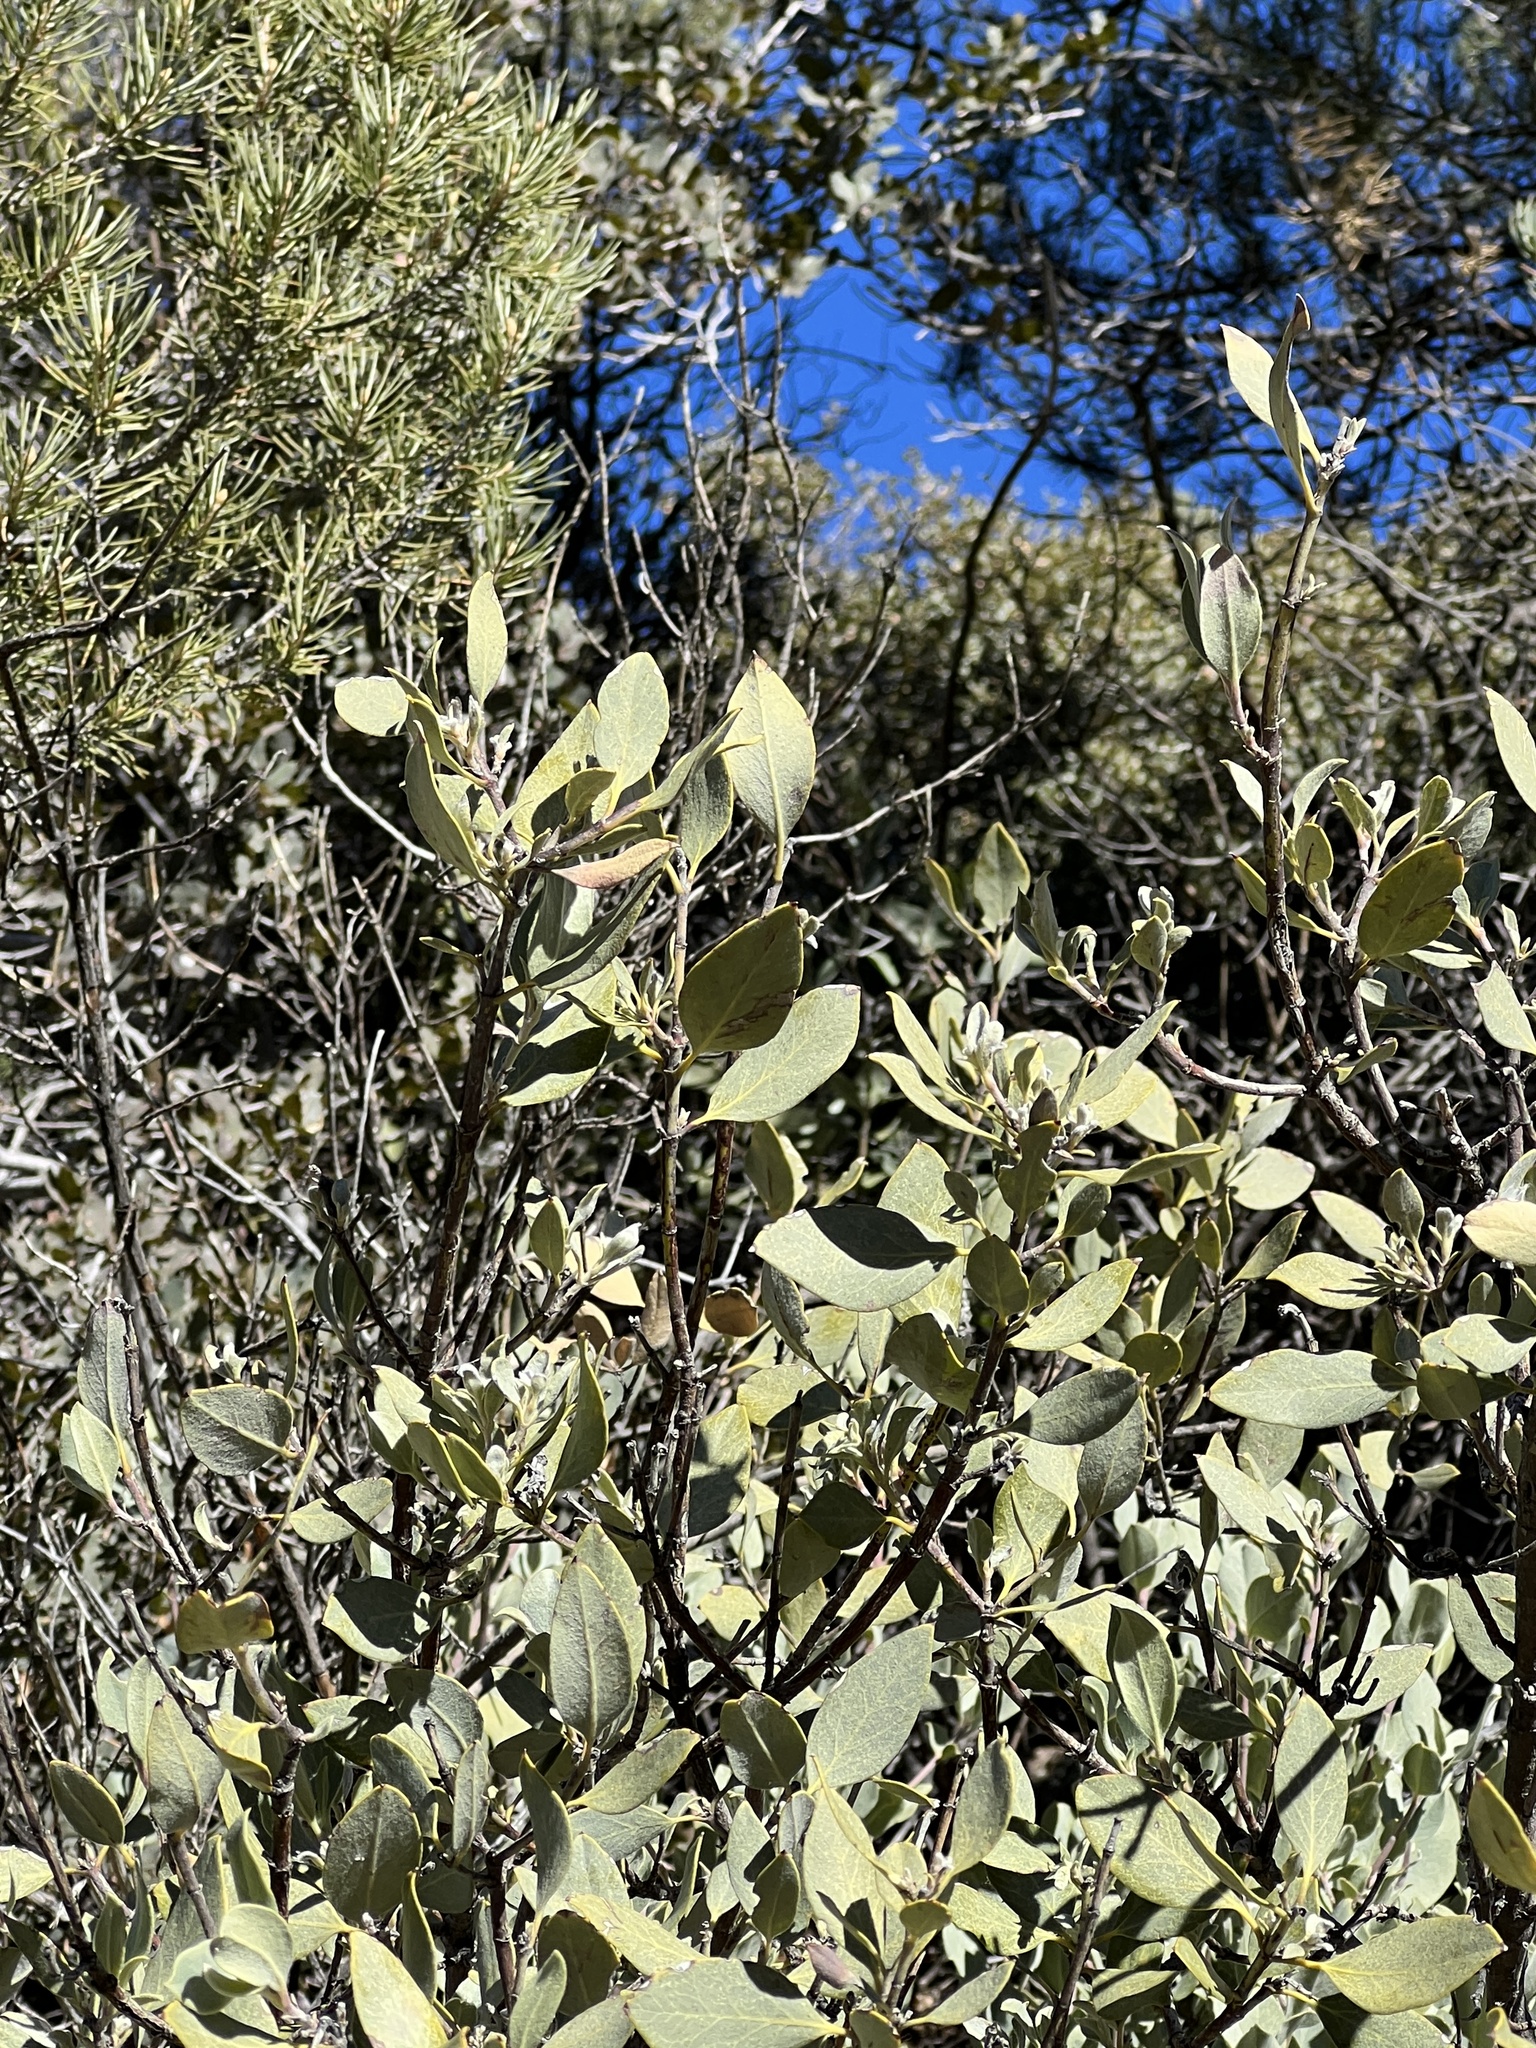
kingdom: Plantae
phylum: Tracheophyta
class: Magnoliopsida
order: Garryales
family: Garryaceae
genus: Garrya
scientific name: Garrya wrightii
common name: Wright's silktassel
